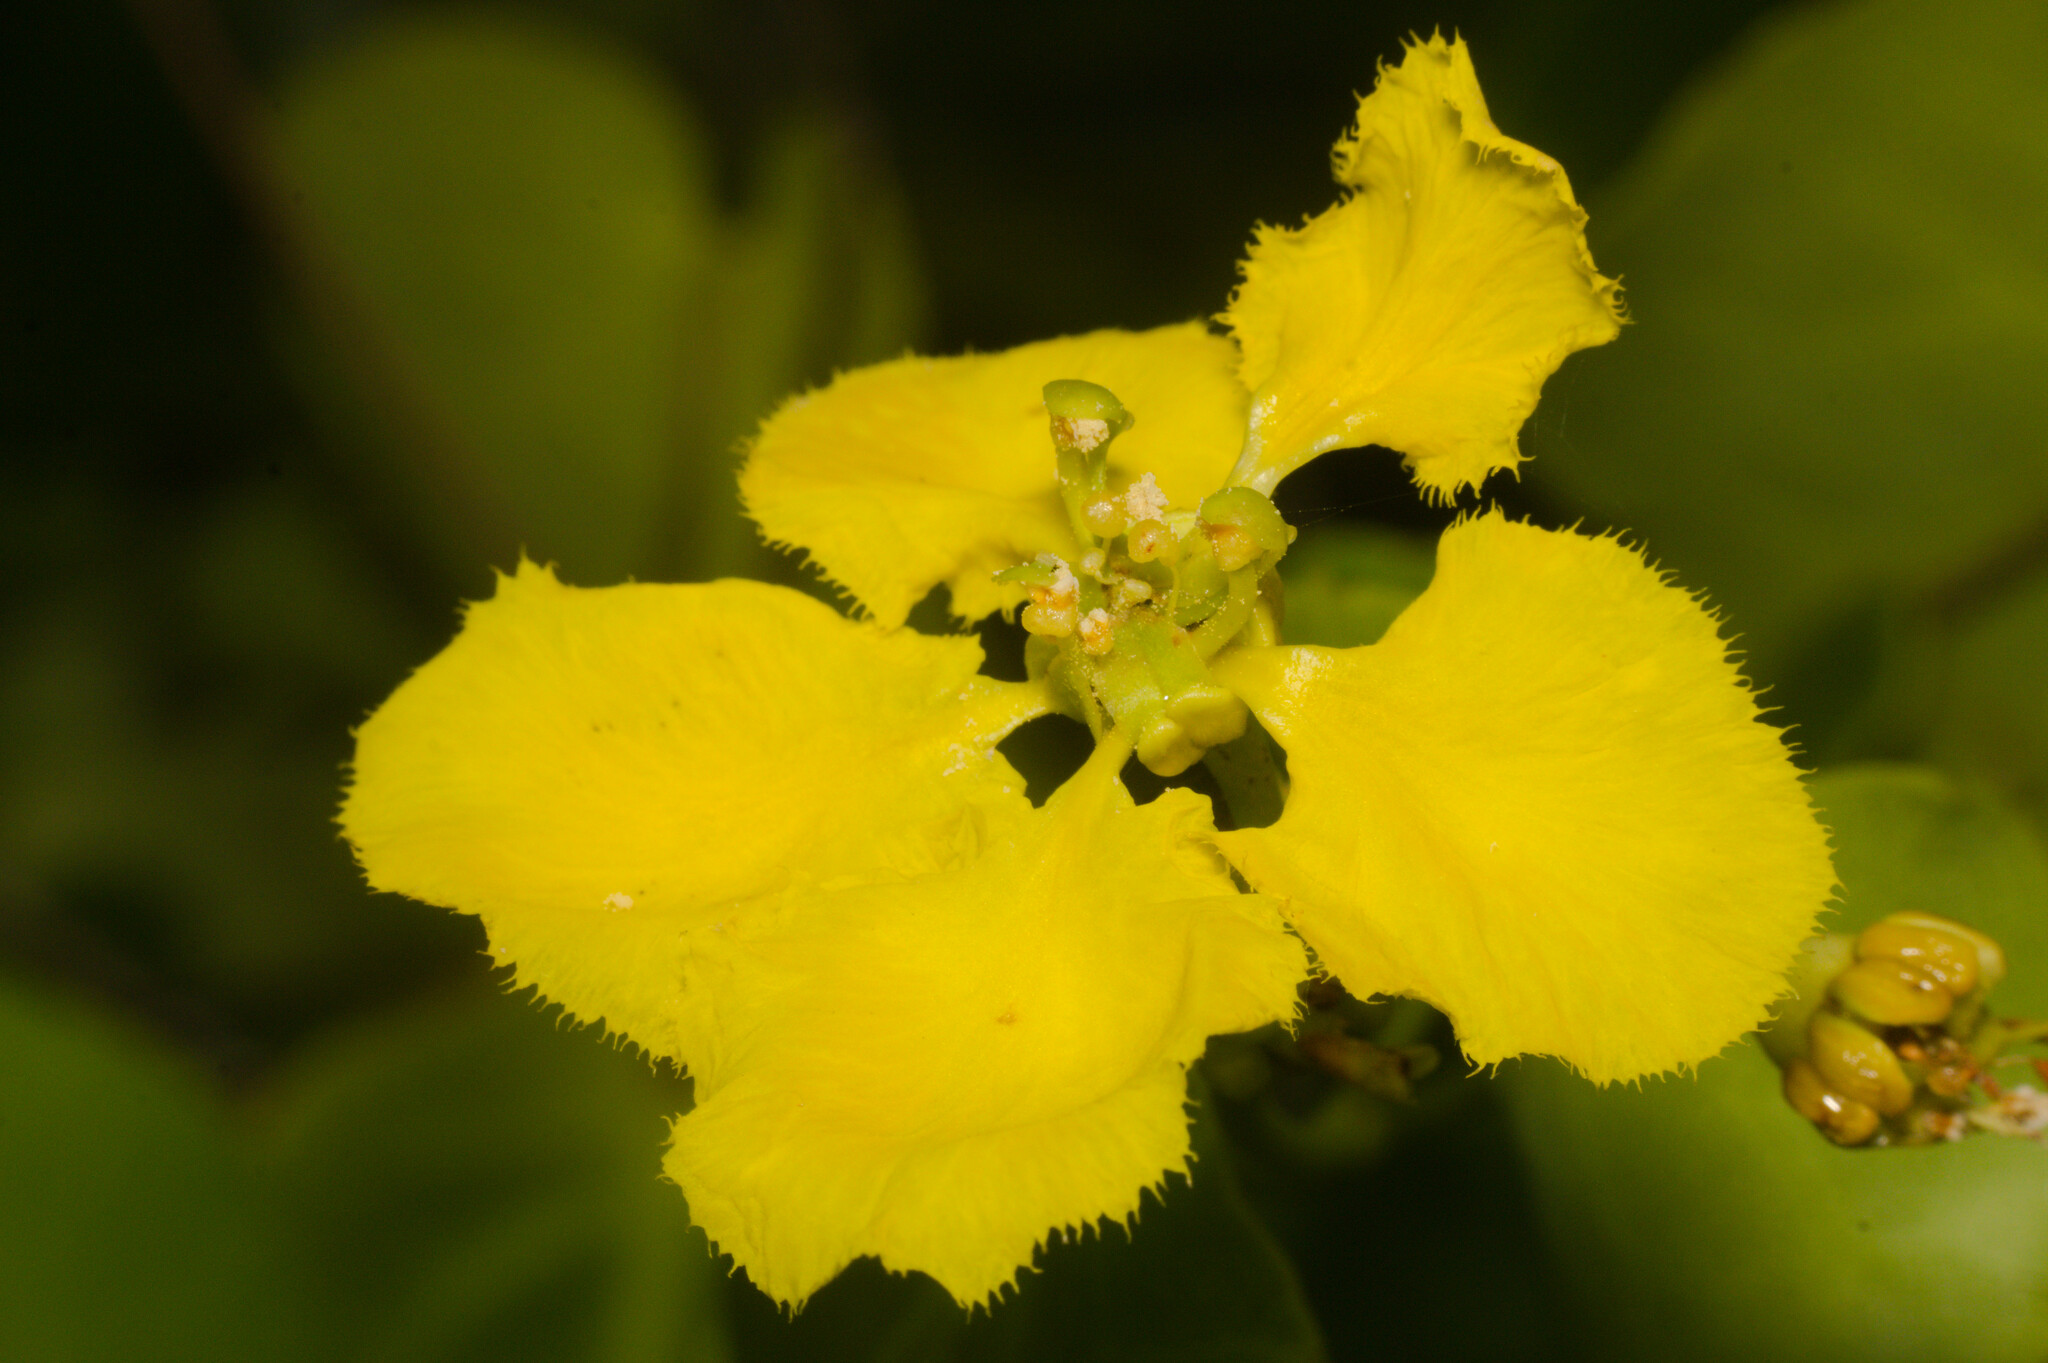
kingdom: Plantae
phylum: Tracheophyta
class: Magnoliopsida
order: Malpighiales
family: Malpighiaceae
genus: Stigmaphyllon
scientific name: Stigmaphyllon ciliatum
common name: Amazonvine
